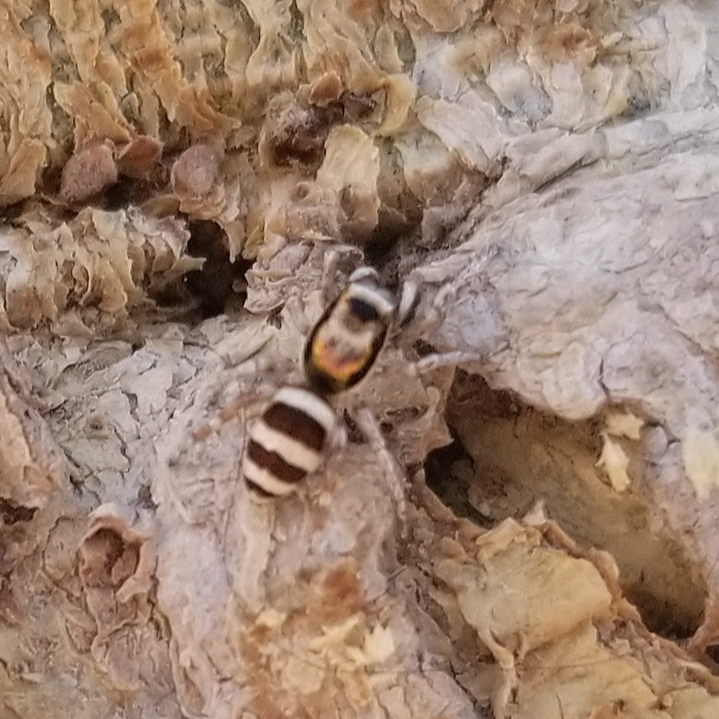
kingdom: Animalia
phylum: Arthropoda
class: Arachnida
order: Araneae
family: Salticidae
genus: Salticus
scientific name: Salticus palpalis
